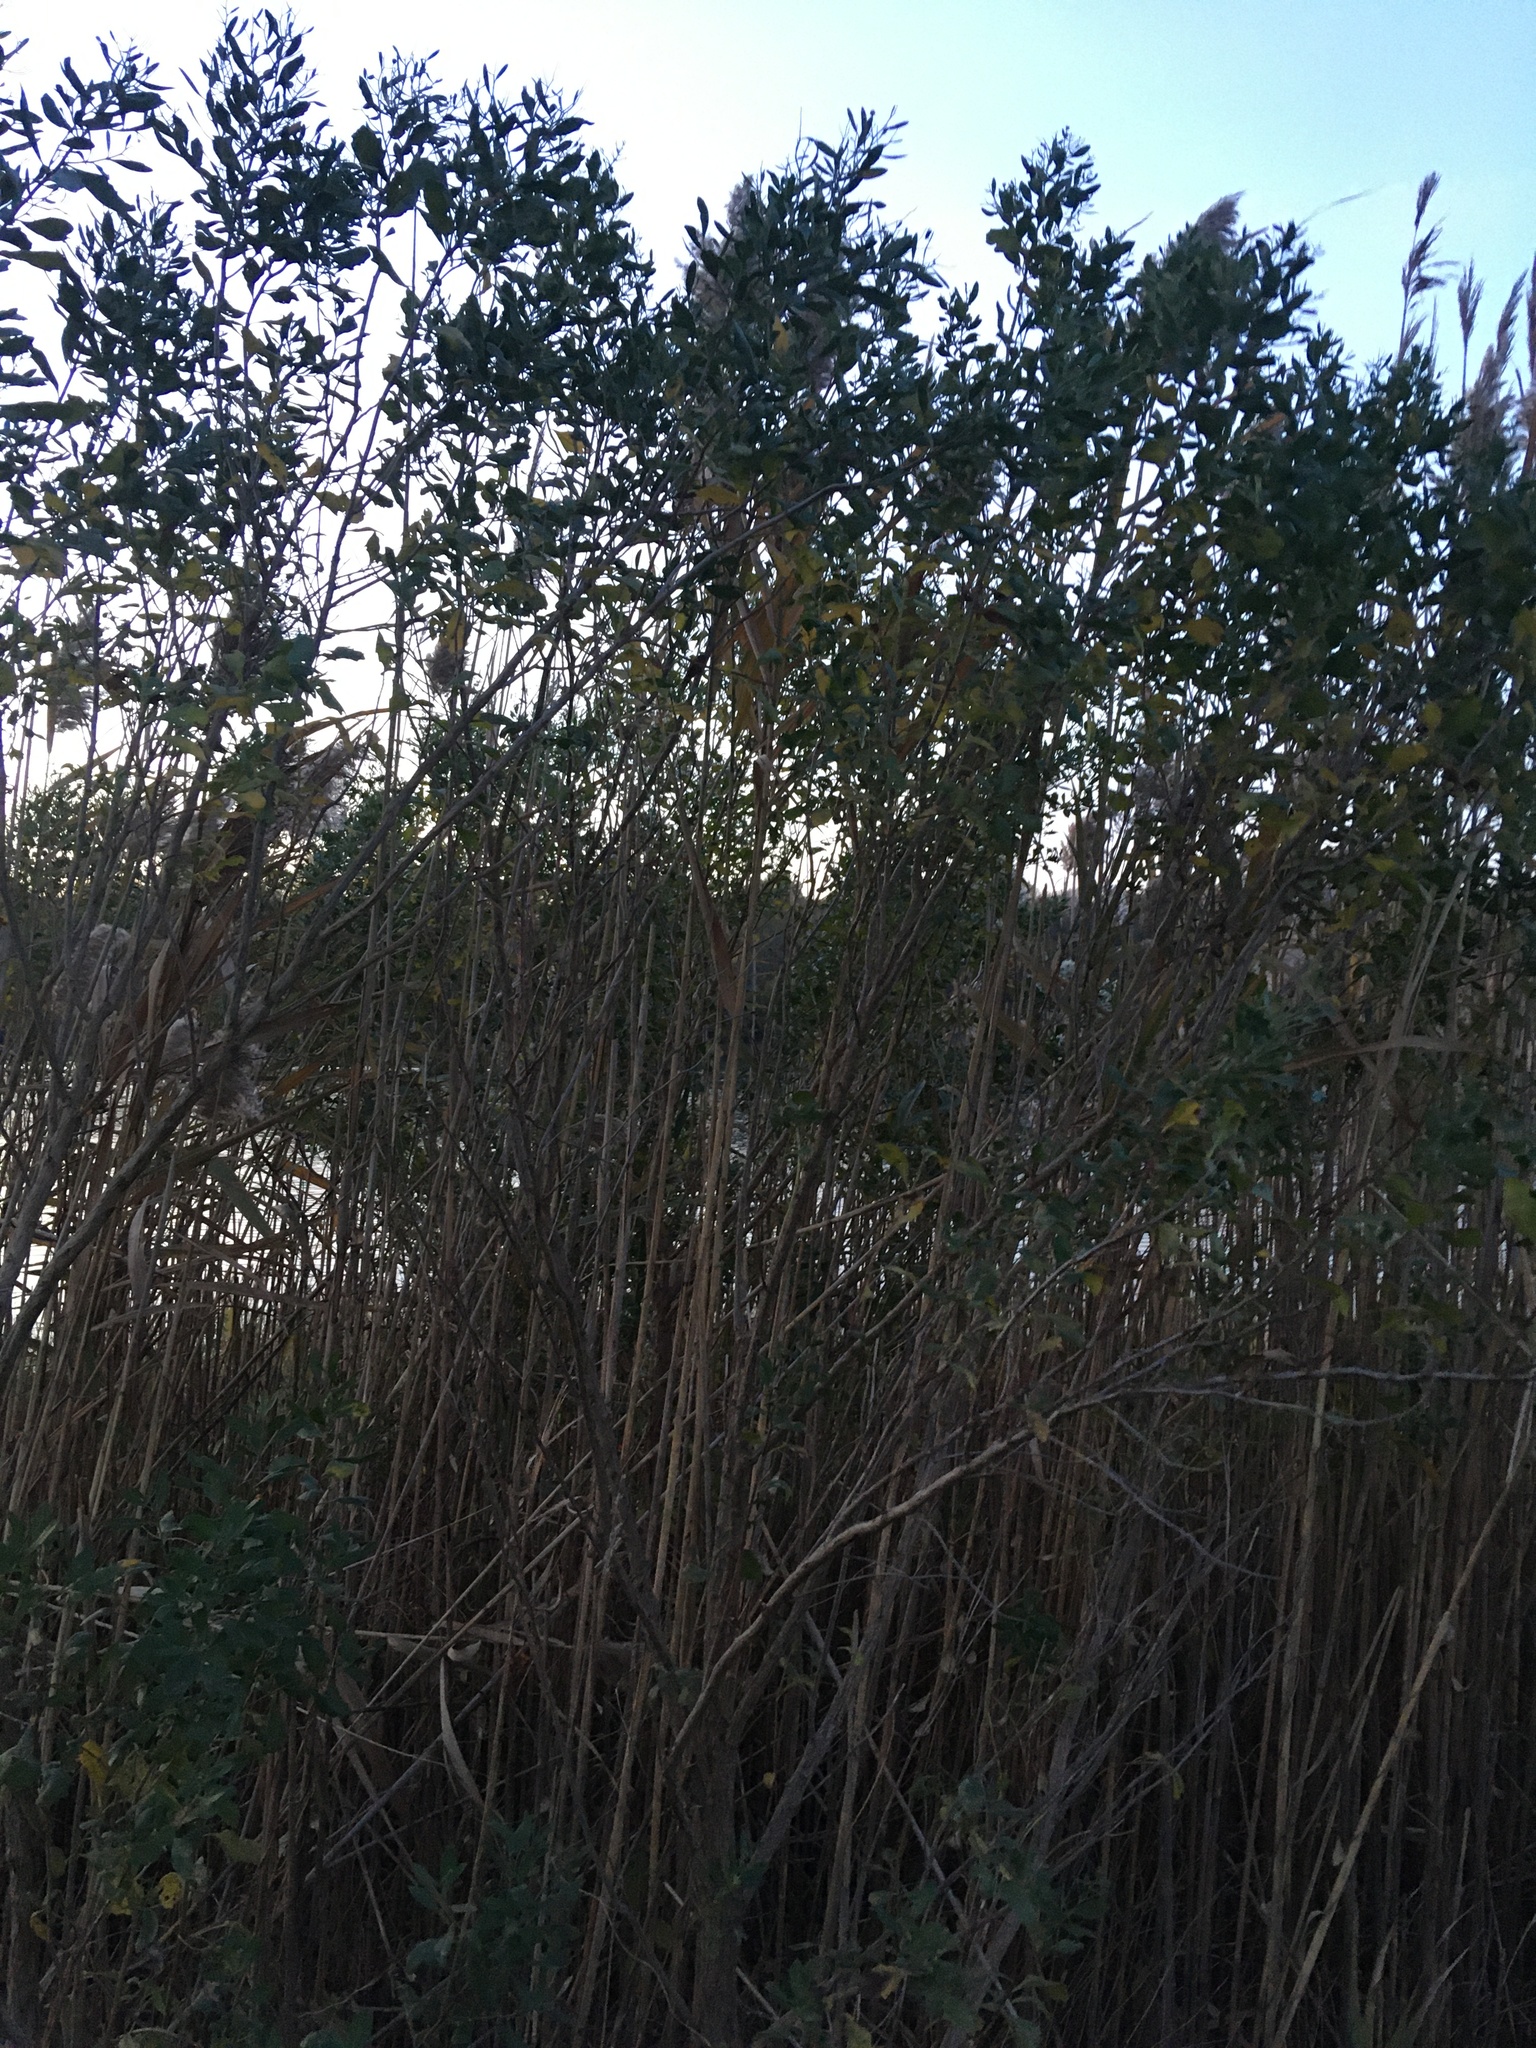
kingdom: Plantae
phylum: Tracheophyta
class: Magnoliopsida
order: Asterales
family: Asteraceae
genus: Baccharis
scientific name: Baccharis halimifolia
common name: Eastern baccharis
